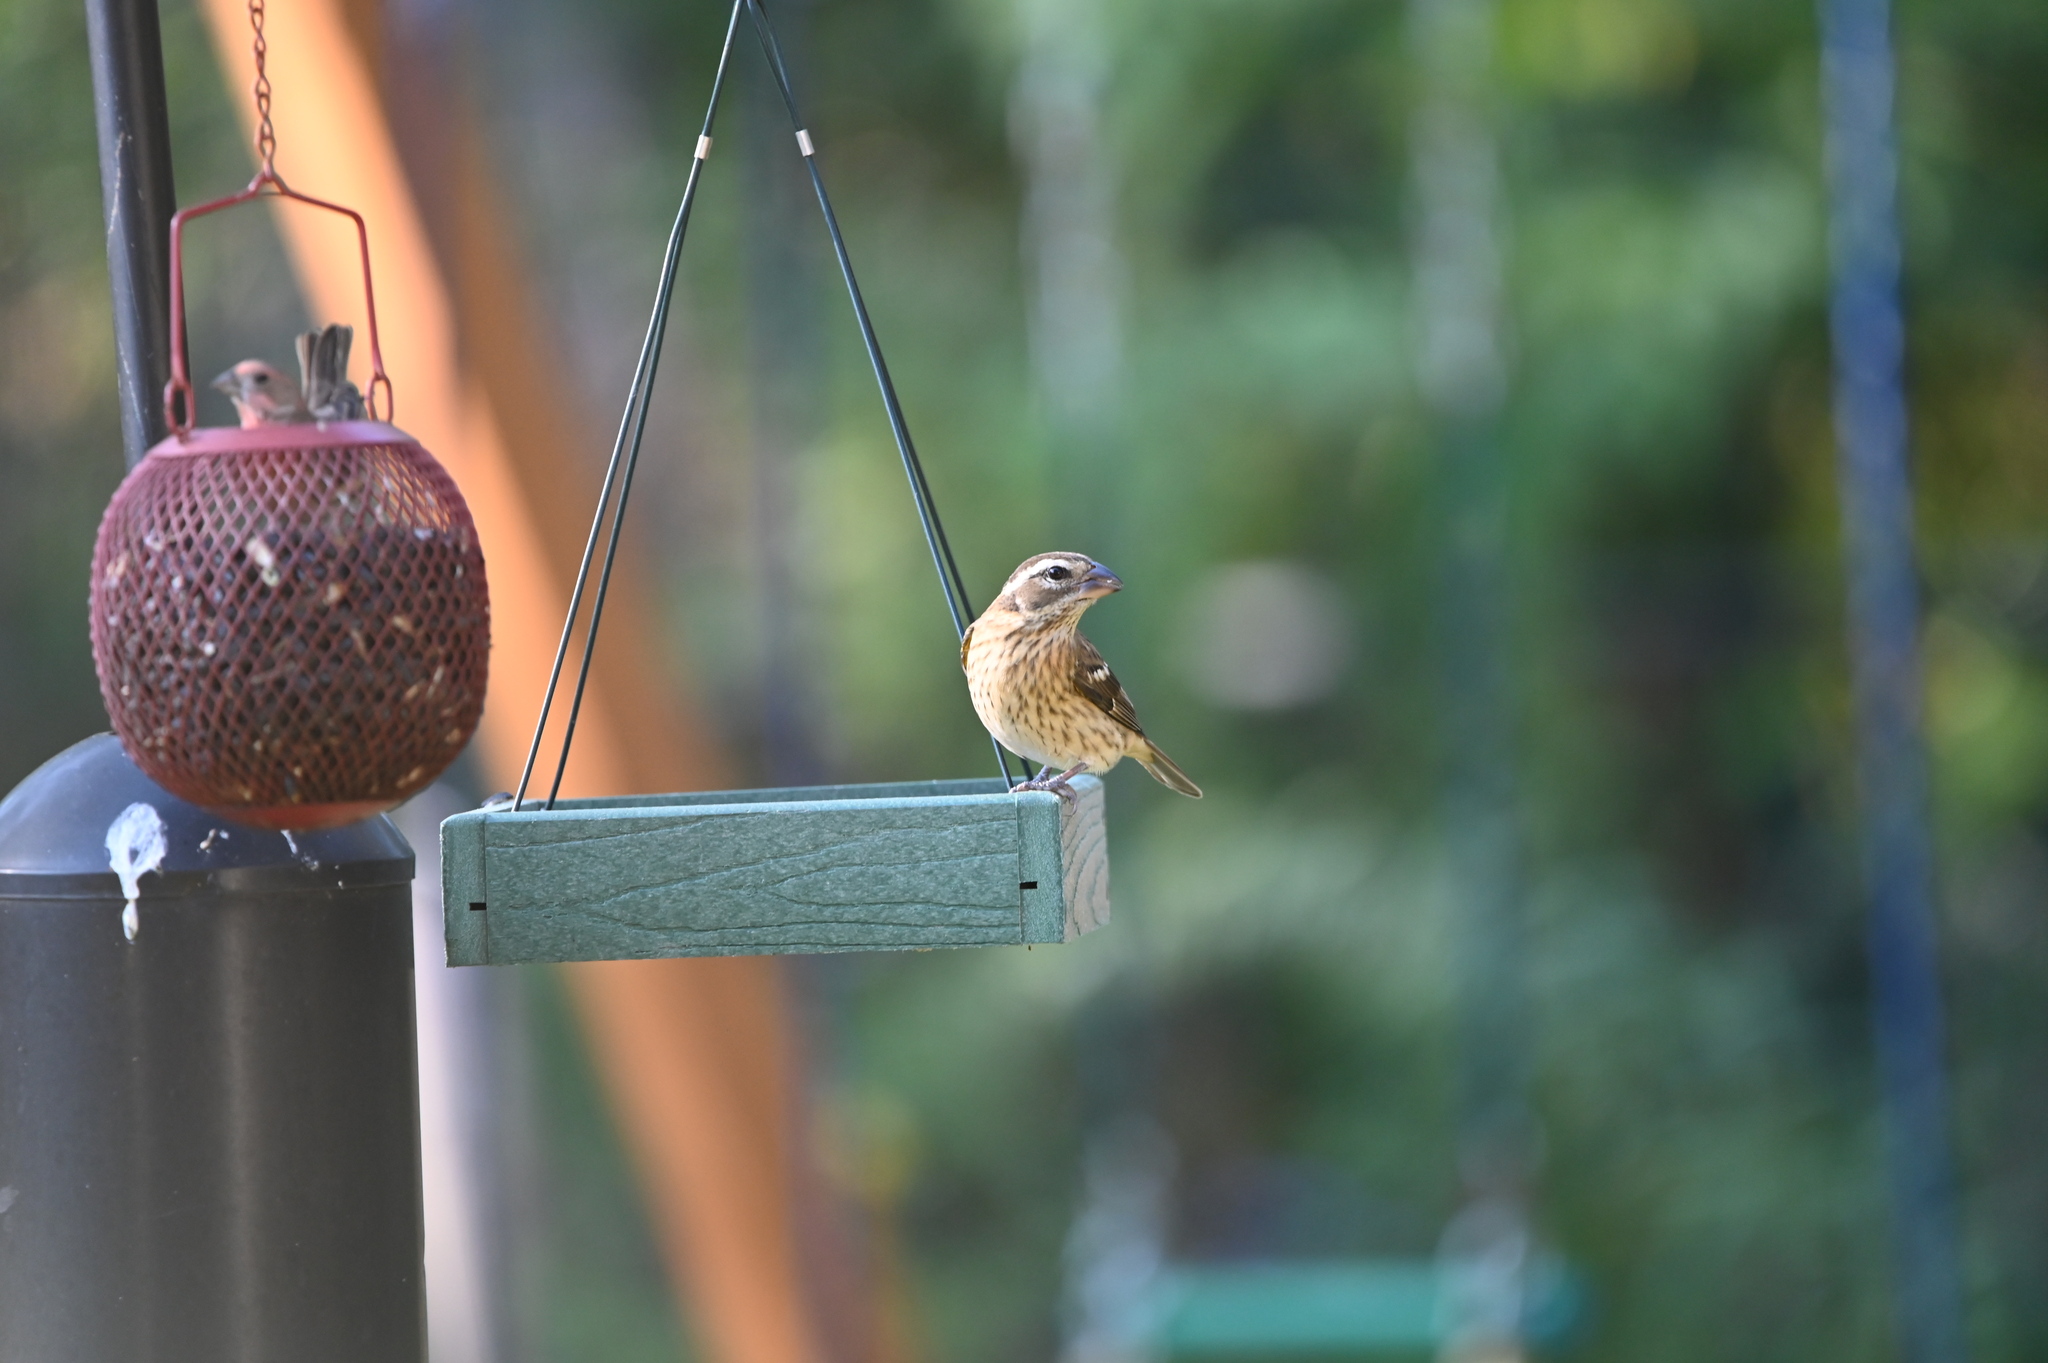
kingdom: Animalia
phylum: Chordata
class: Aves
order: Passeriformes
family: Cardinalidae
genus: Pheucticus
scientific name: Pheucticus ludovicianus
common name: Rose-breasted grosbeak
